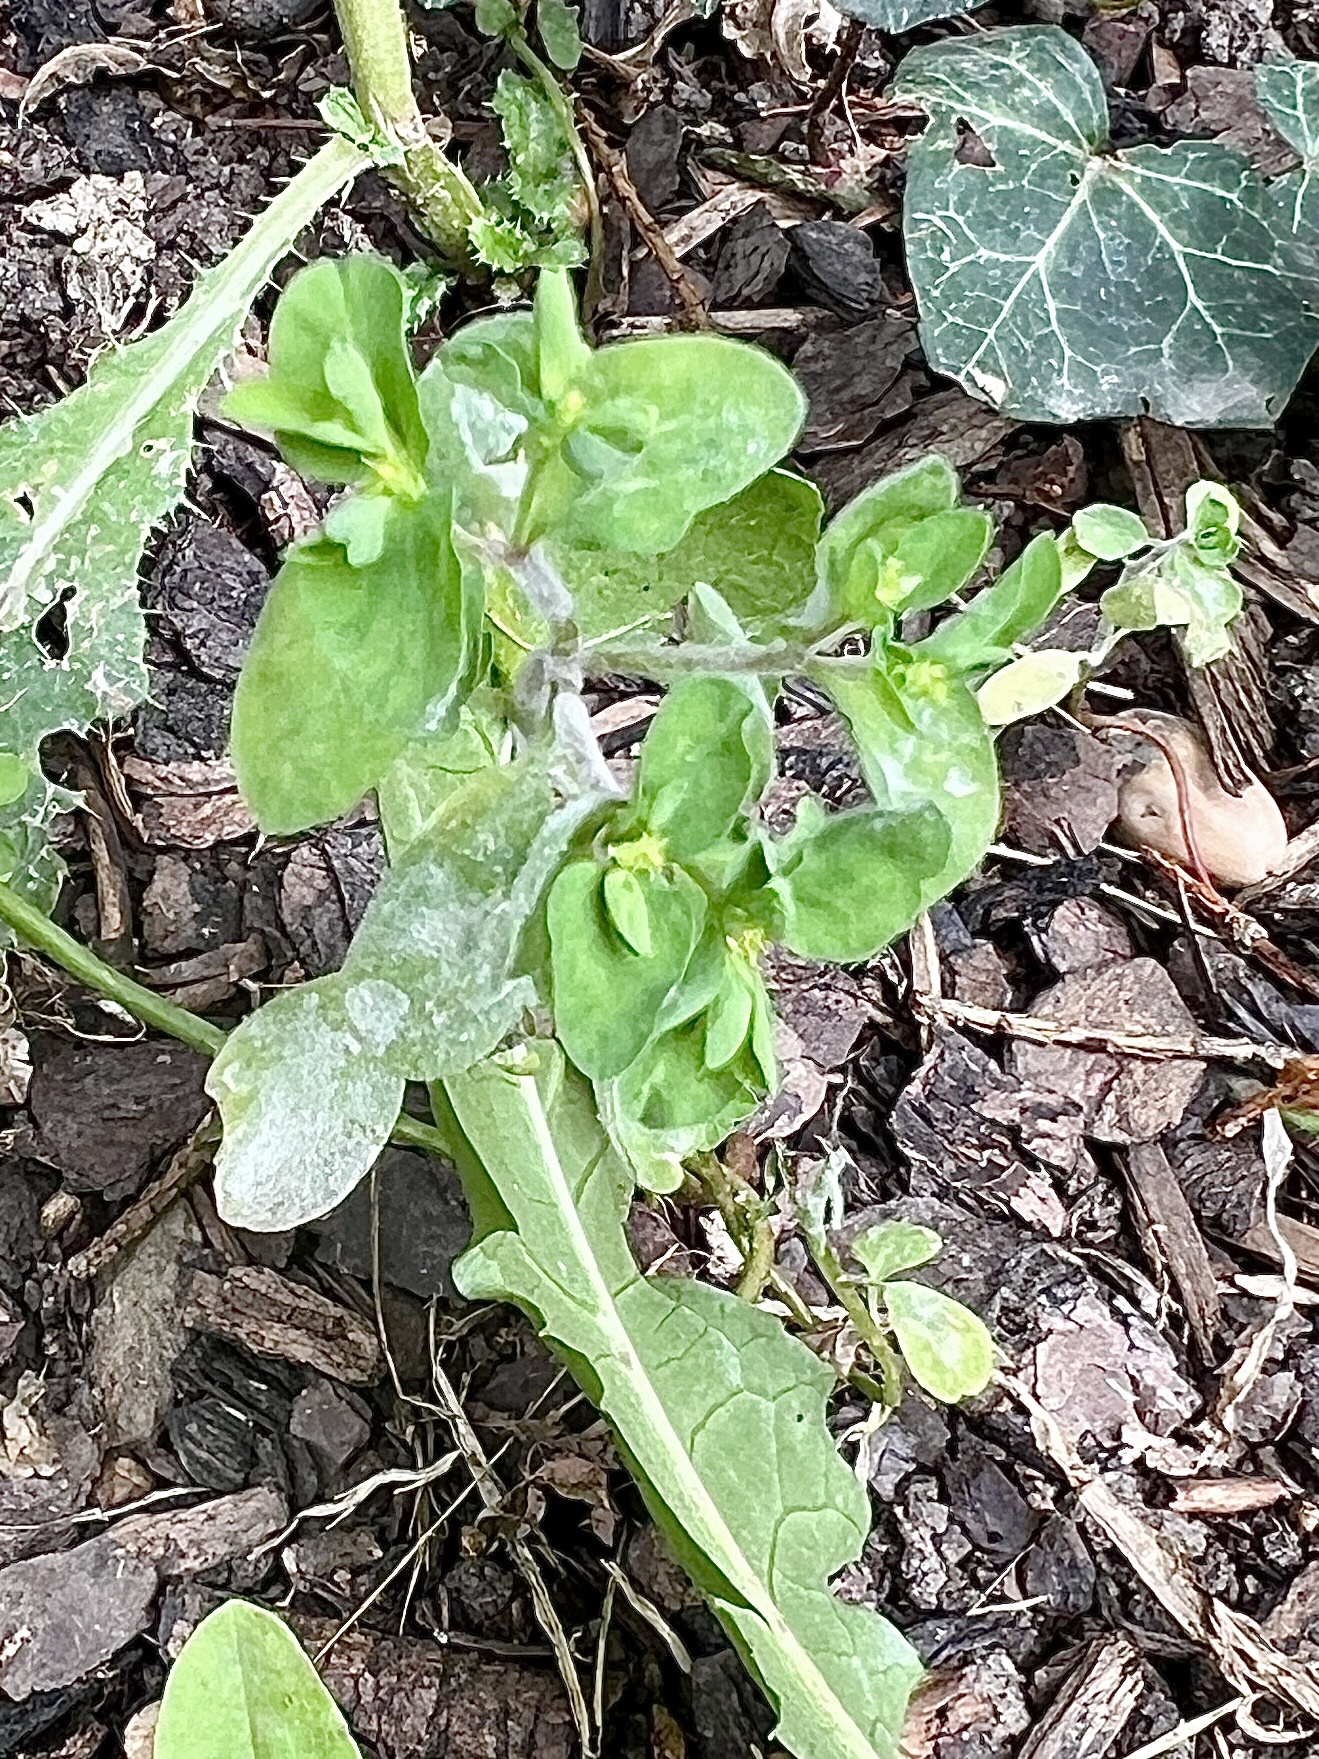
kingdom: Plantae
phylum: Tracheophyta
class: Magnoliopsida
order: Malpighiales
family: Euphorbiaceae
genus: Euphorbia
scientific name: Euphorbia peplus
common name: Petty spurge
